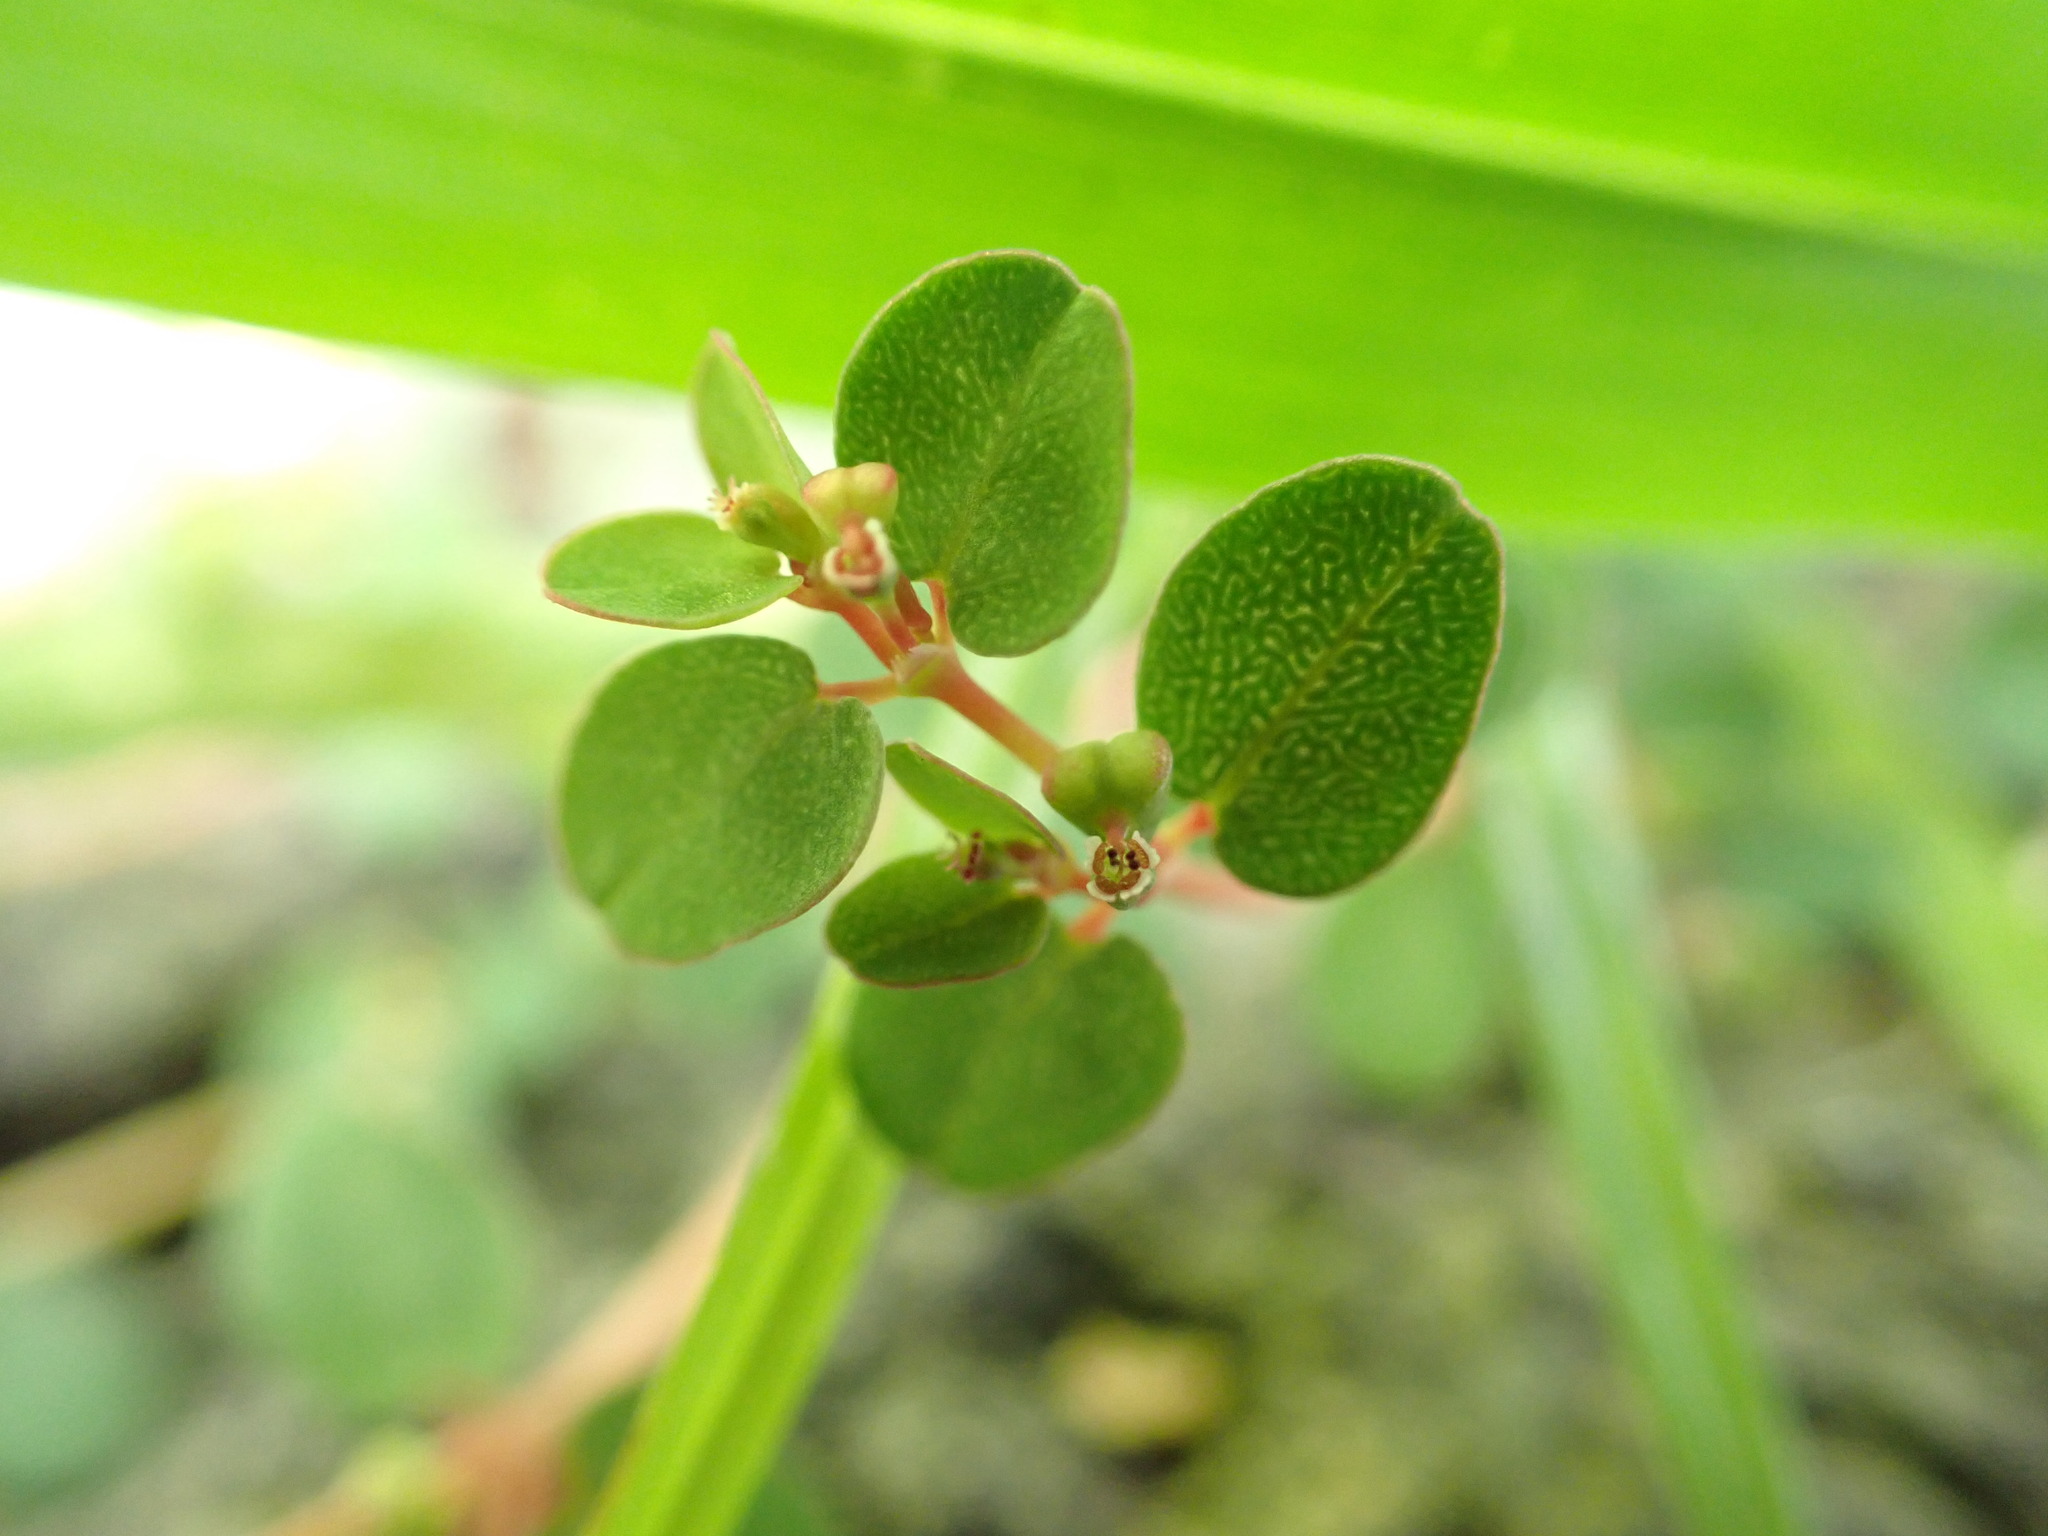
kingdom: Plantae
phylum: Tracheophyta
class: Magnoliopsida
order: Malpighiales
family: Euphorbiaceae
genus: Euphorbia
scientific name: Euphorbia serpens
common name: Matted sandmat
